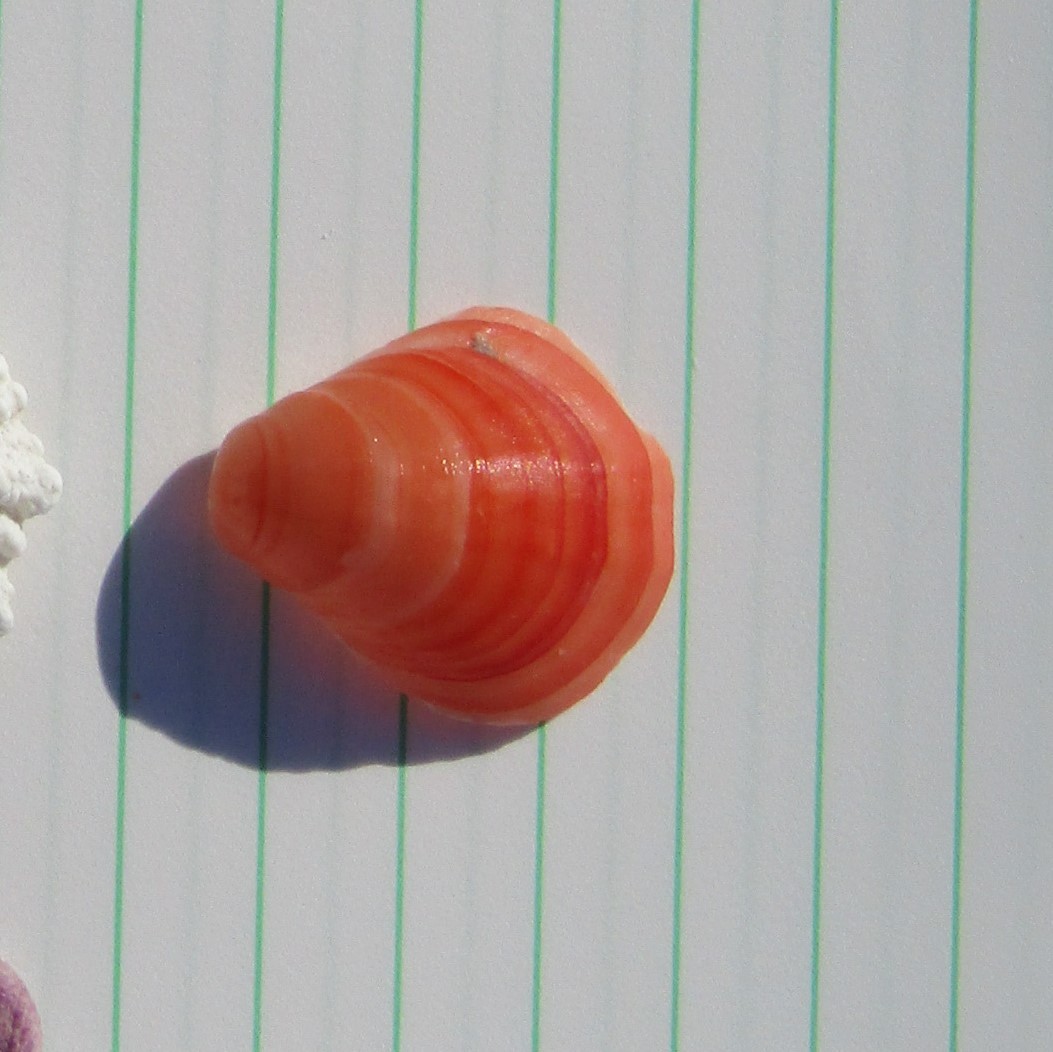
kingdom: Animalia
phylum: Brachiopoda
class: Rhynchonellata
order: Terebratulida
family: Terebratellidae
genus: Calloria
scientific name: Calloria inconspicua
